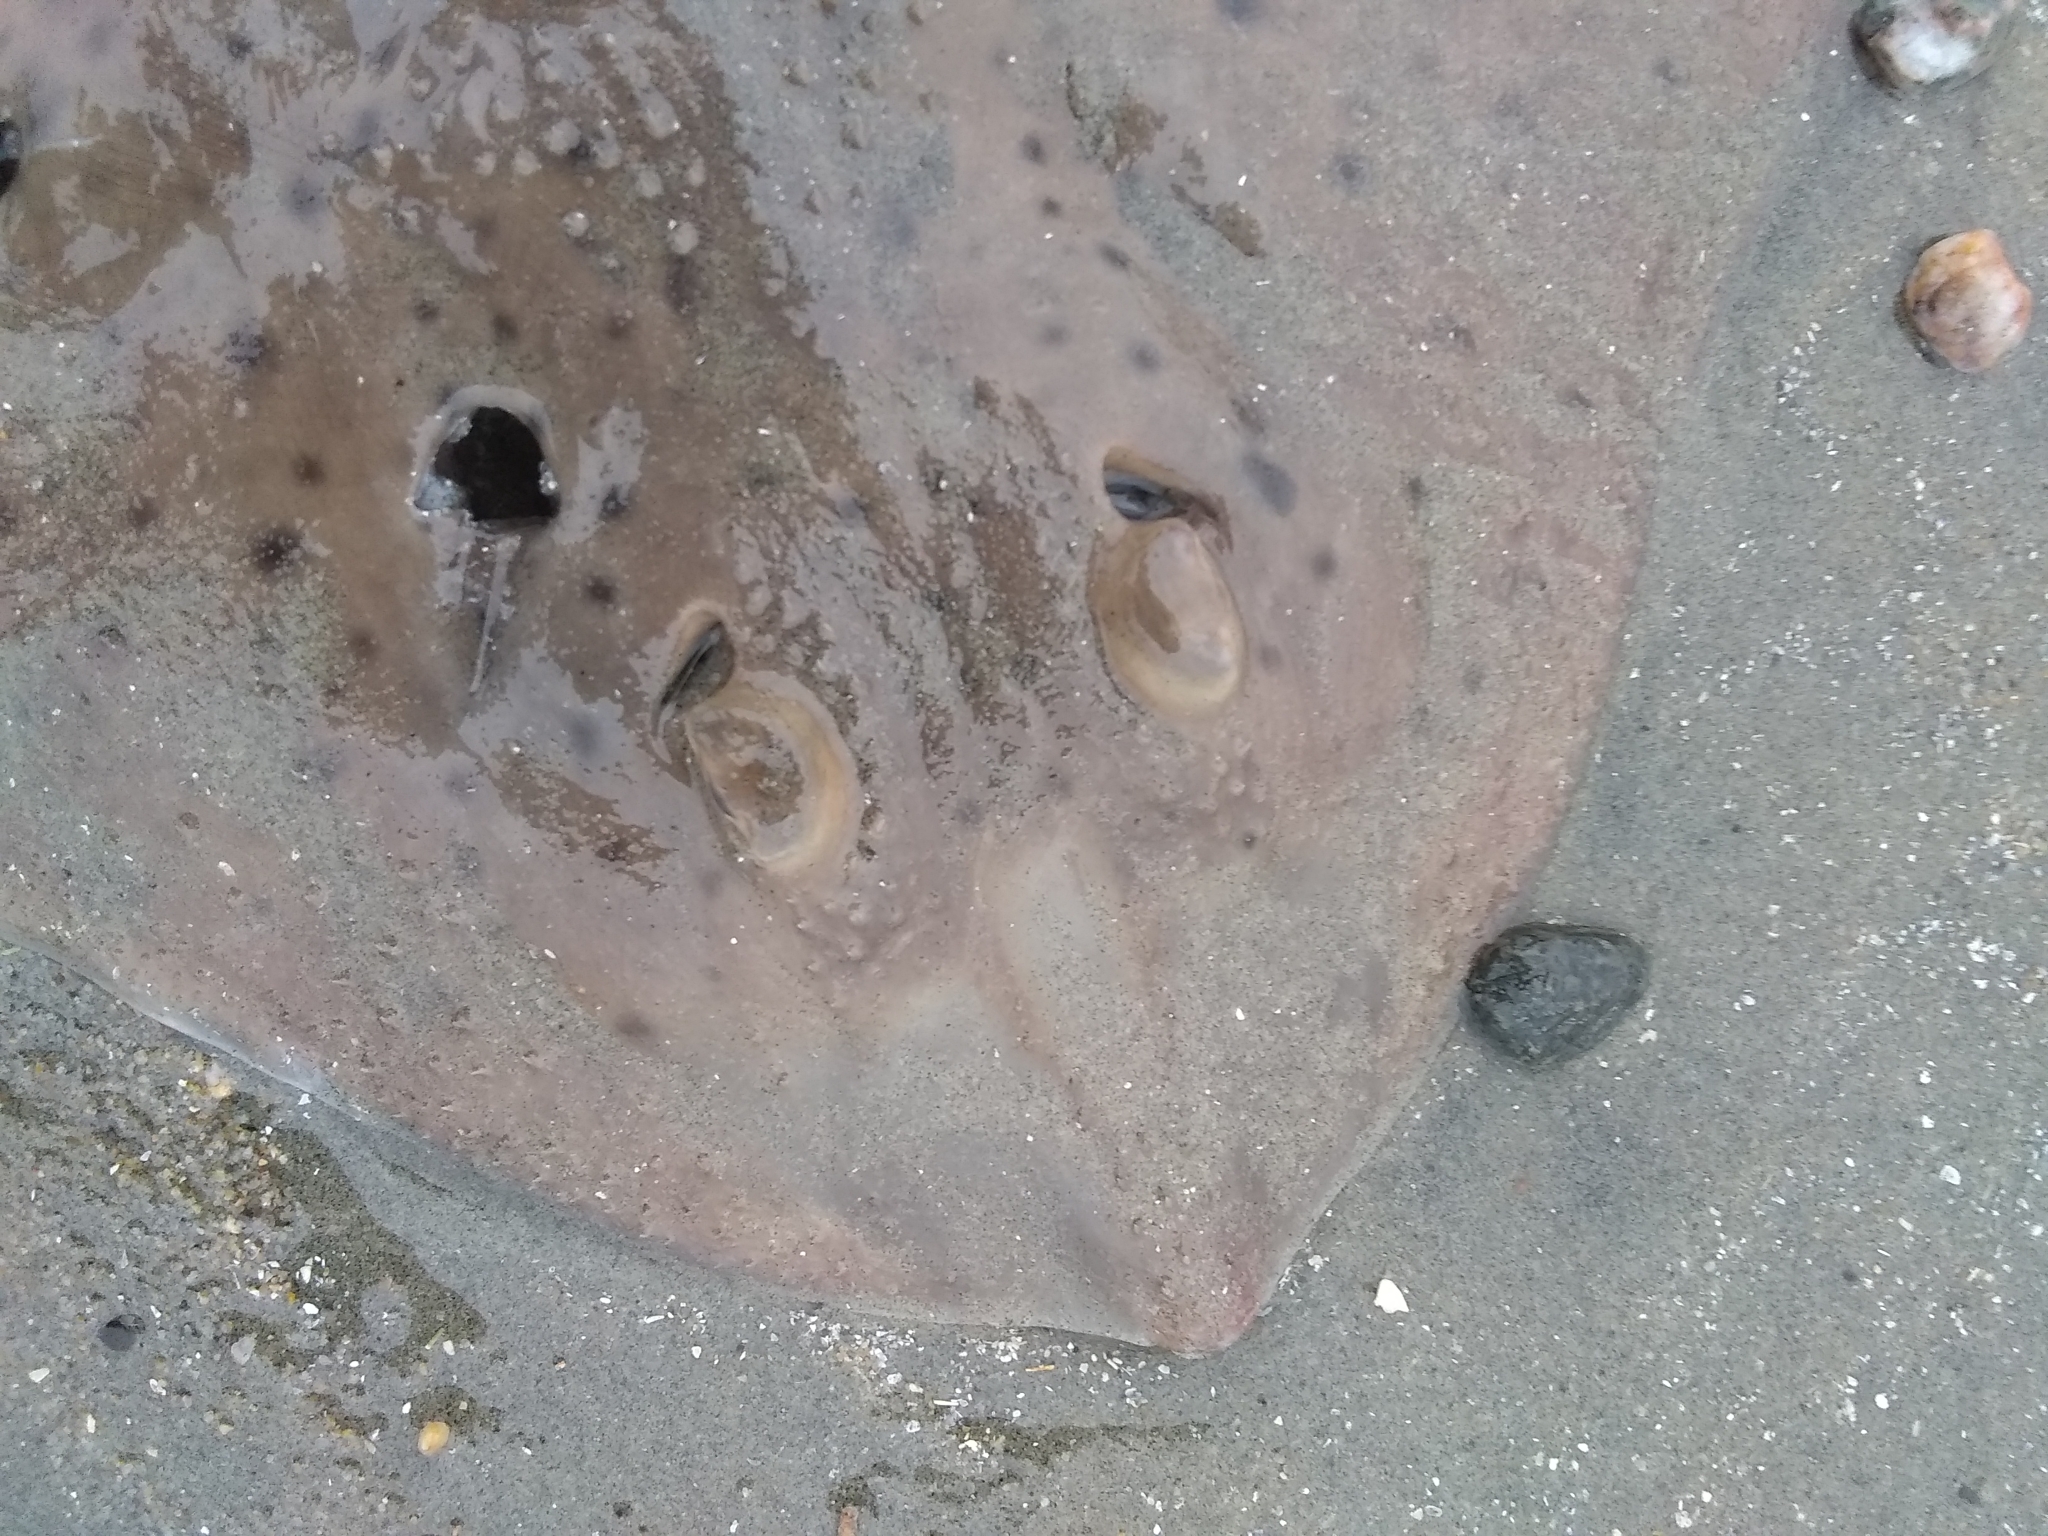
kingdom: Animalia
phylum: Chordata
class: Elasmobranchii
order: Rajiformes
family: Rajidae
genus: Leucoraja
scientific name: Leucoraja erinacea
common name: Little skate
